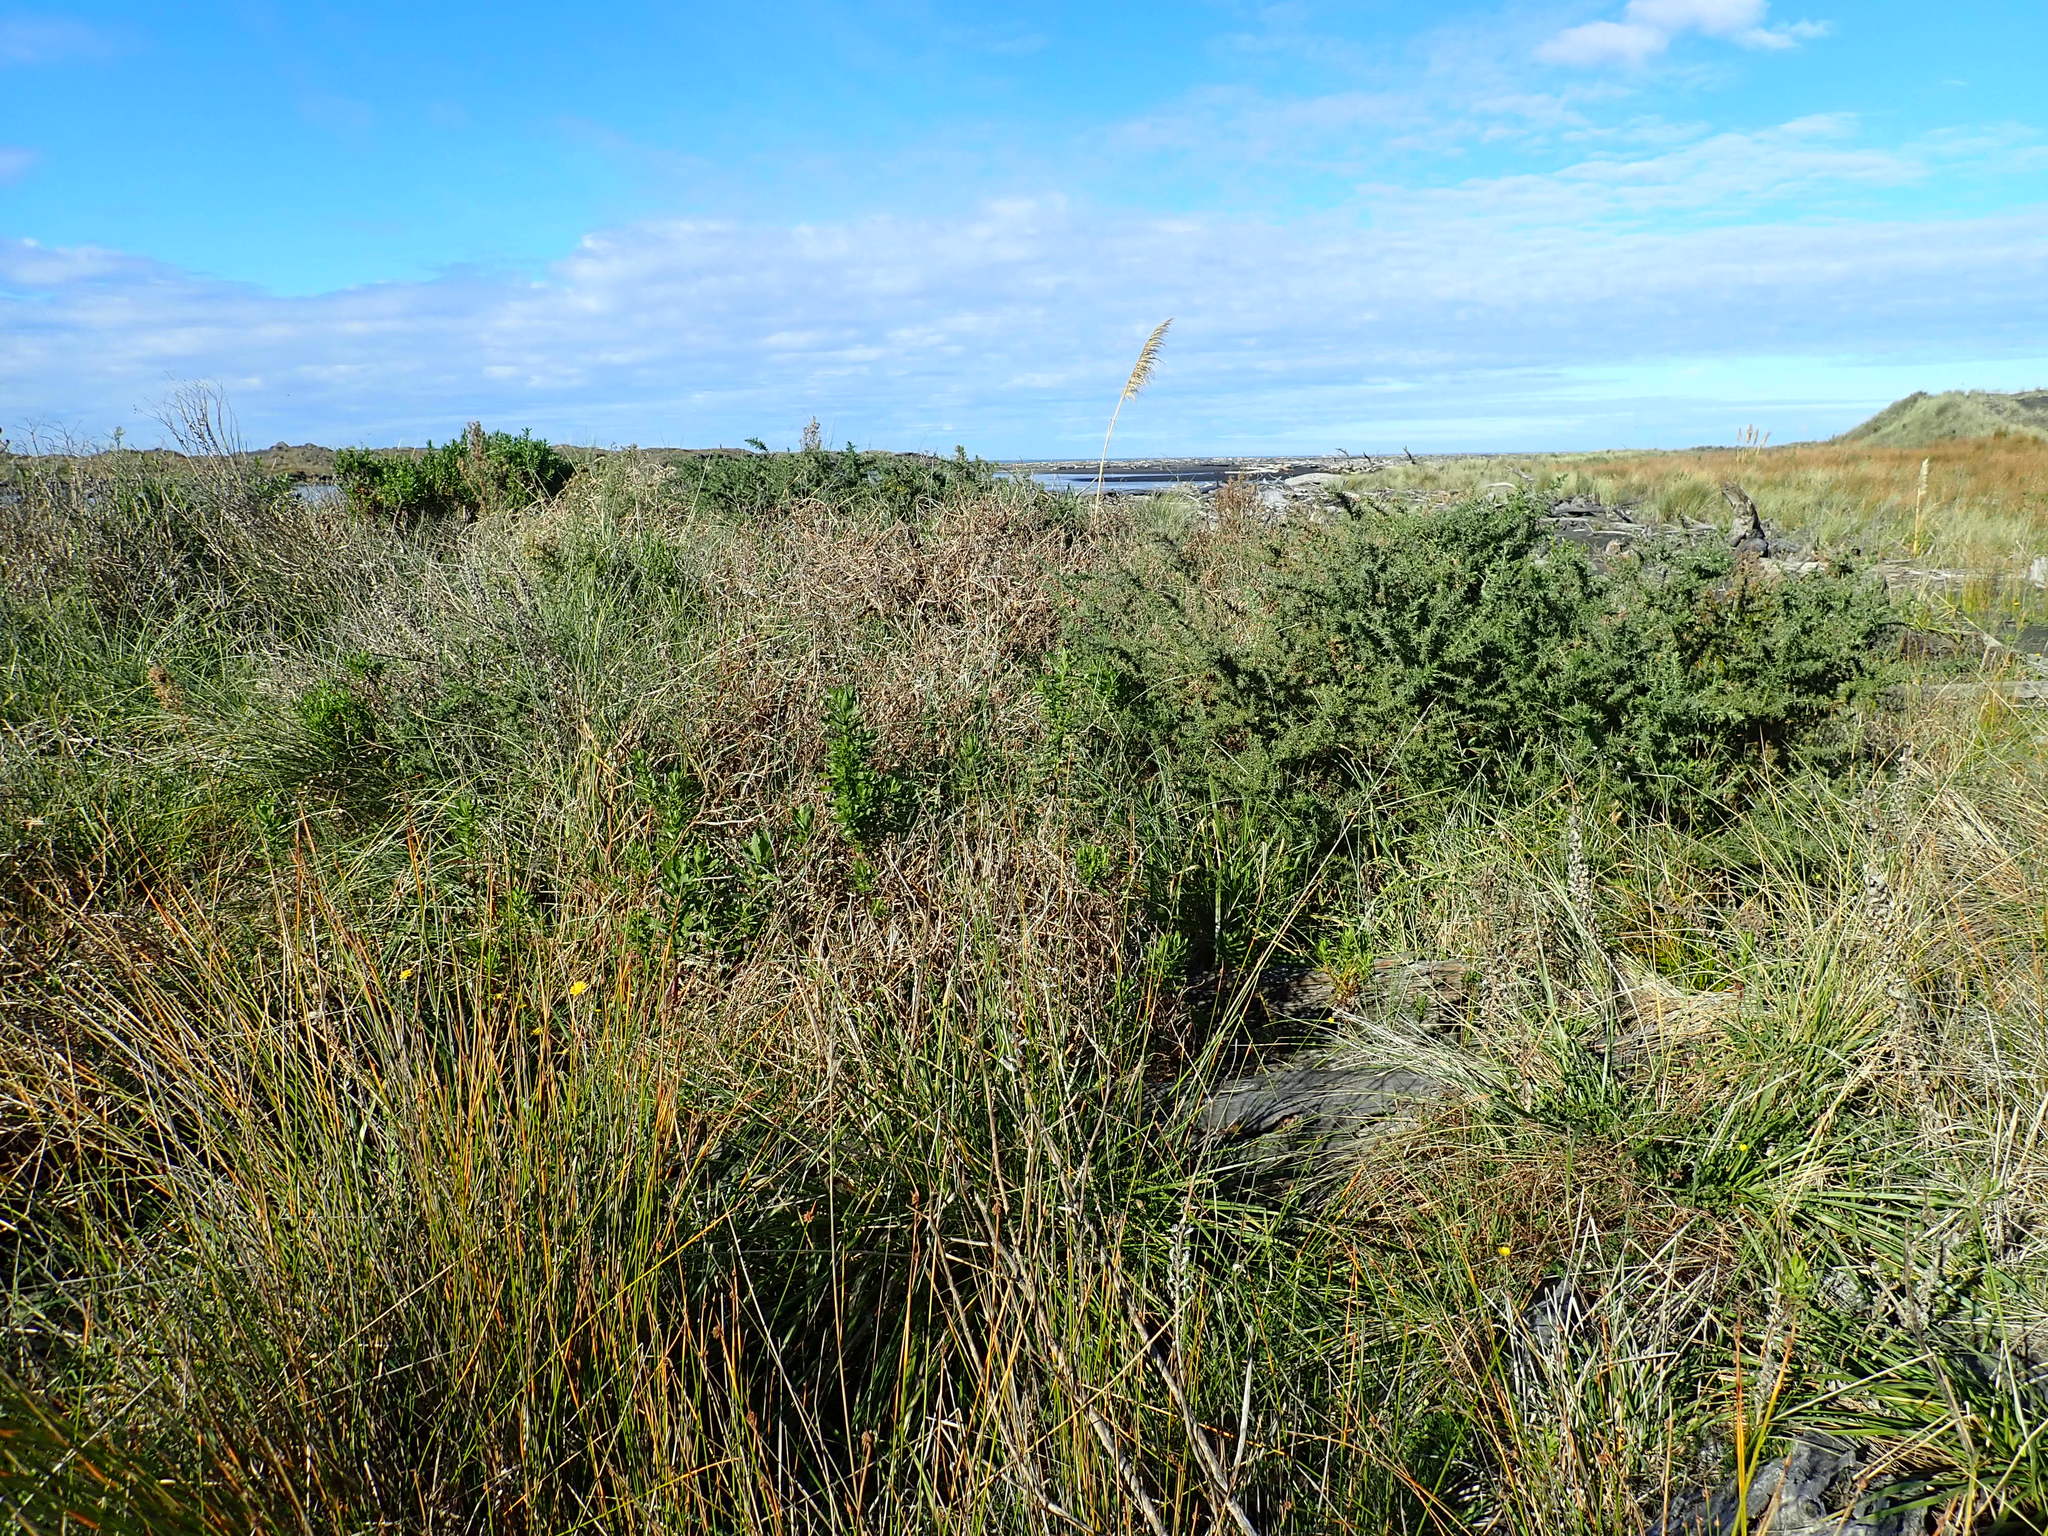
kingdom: Plantae
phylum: Tracheophyta
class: Magnoliopsida
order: Fabales
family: Fabaceae
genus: Ulex
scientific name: Ulex europaeus
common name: Common gorse
